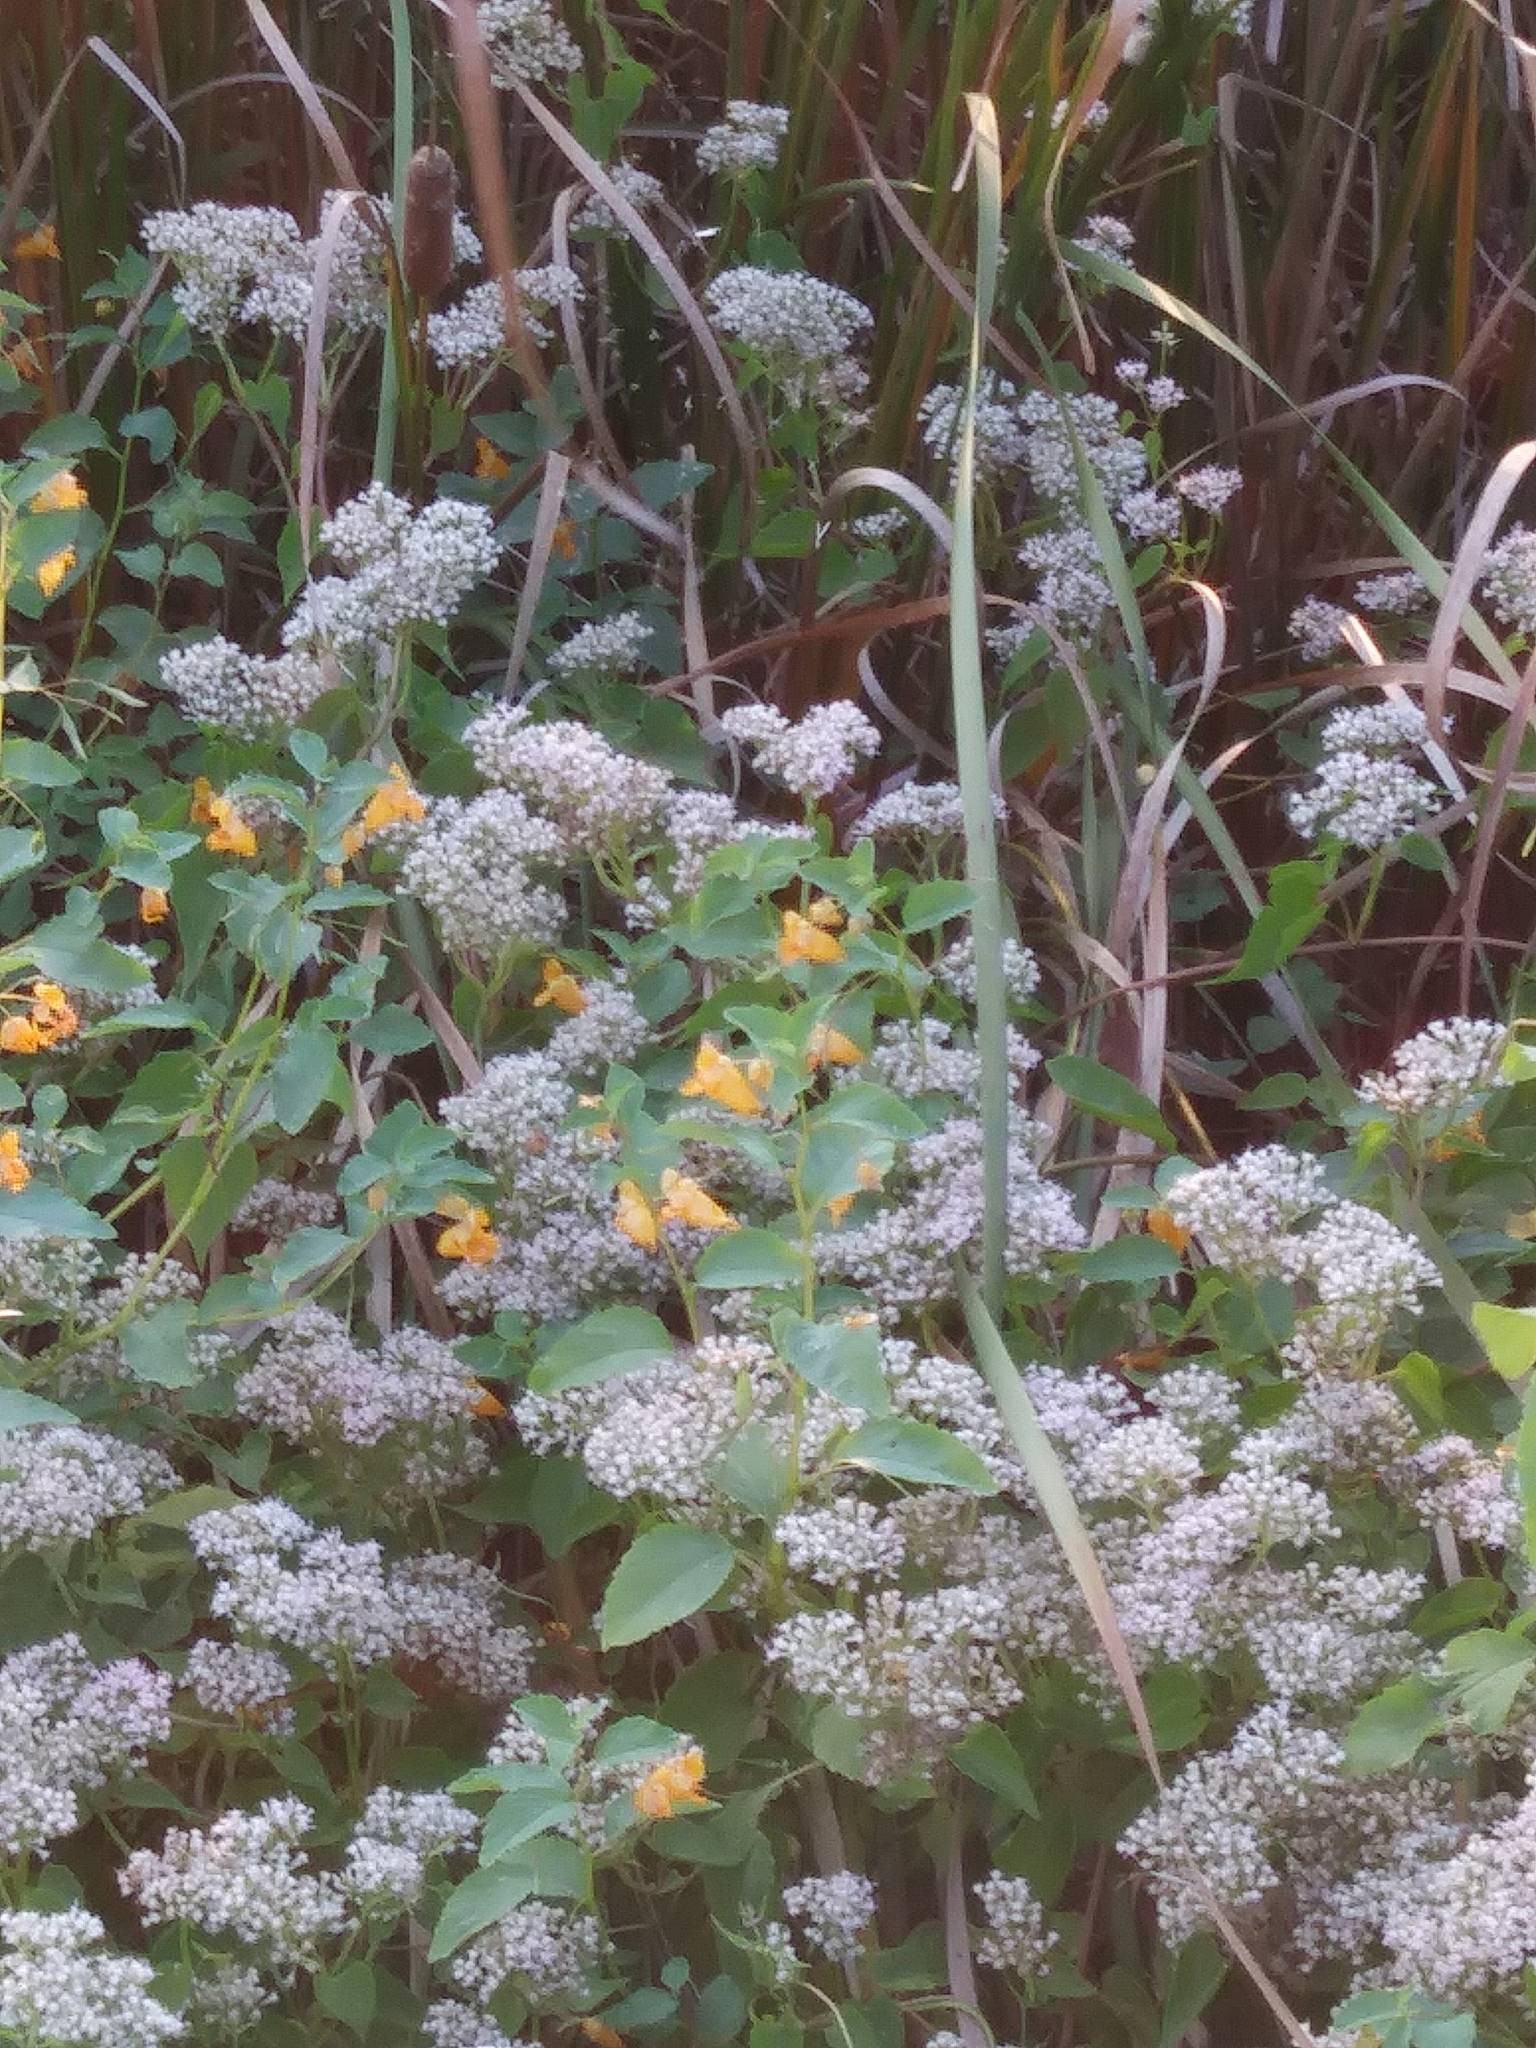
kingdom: Plantae
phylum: Tracheophyta
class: Magnoliopsida
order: Ericales
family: Balsaminaceae
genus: Impatiens
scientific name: Impatiens capensis
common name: Orange balsam
